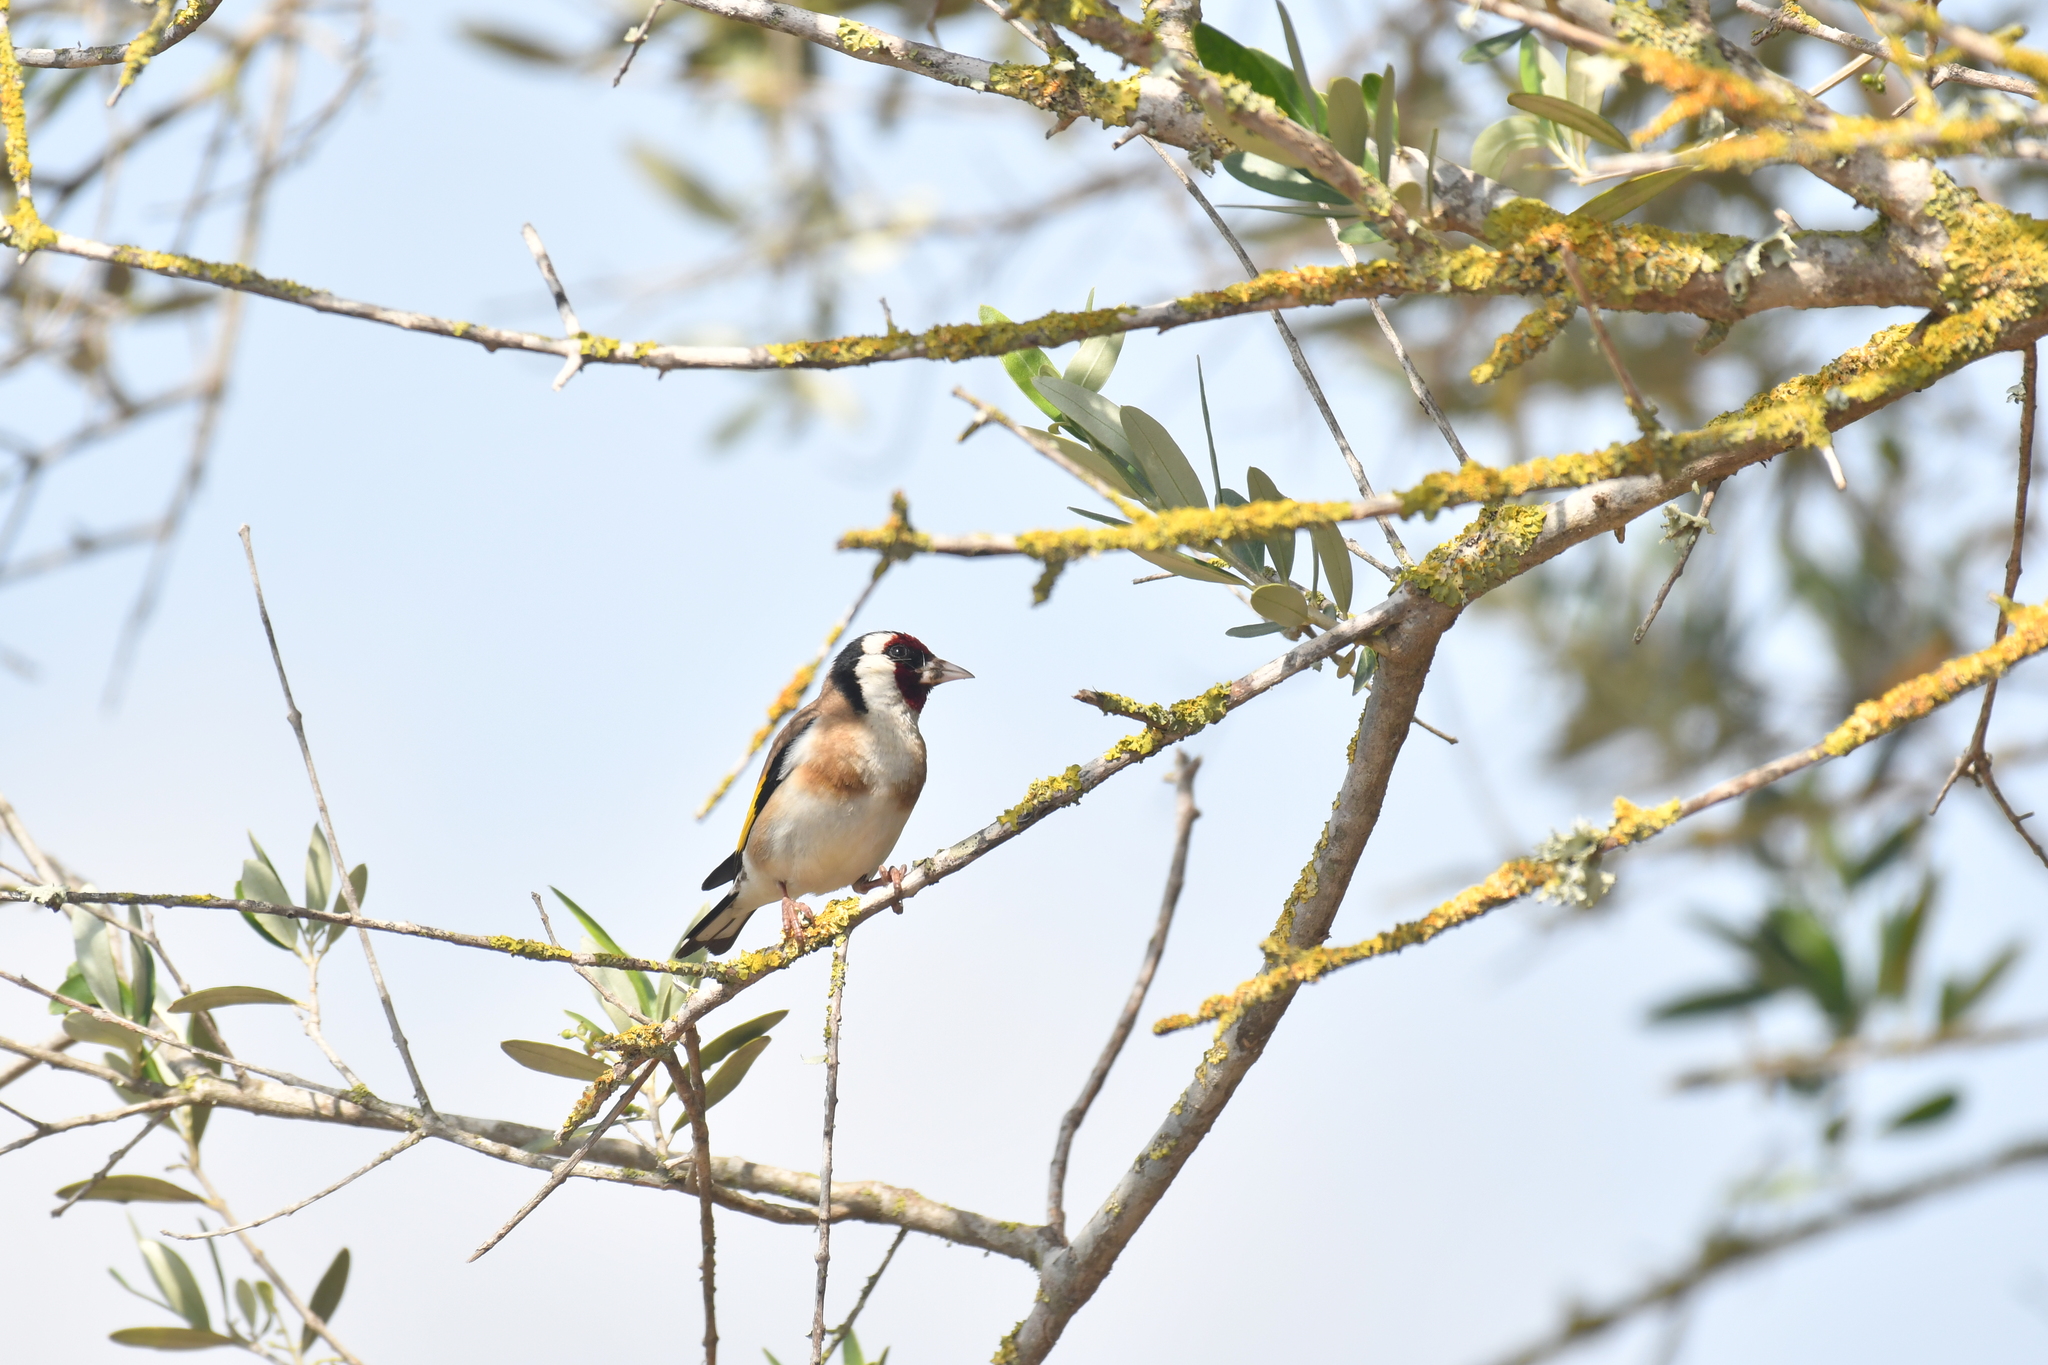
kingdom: Animalia
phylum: Chordata
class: Aves
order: Passeriformes
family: Fringillidae
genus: Carduelis
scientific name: Carduelis carduelis
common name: European goldfinch
